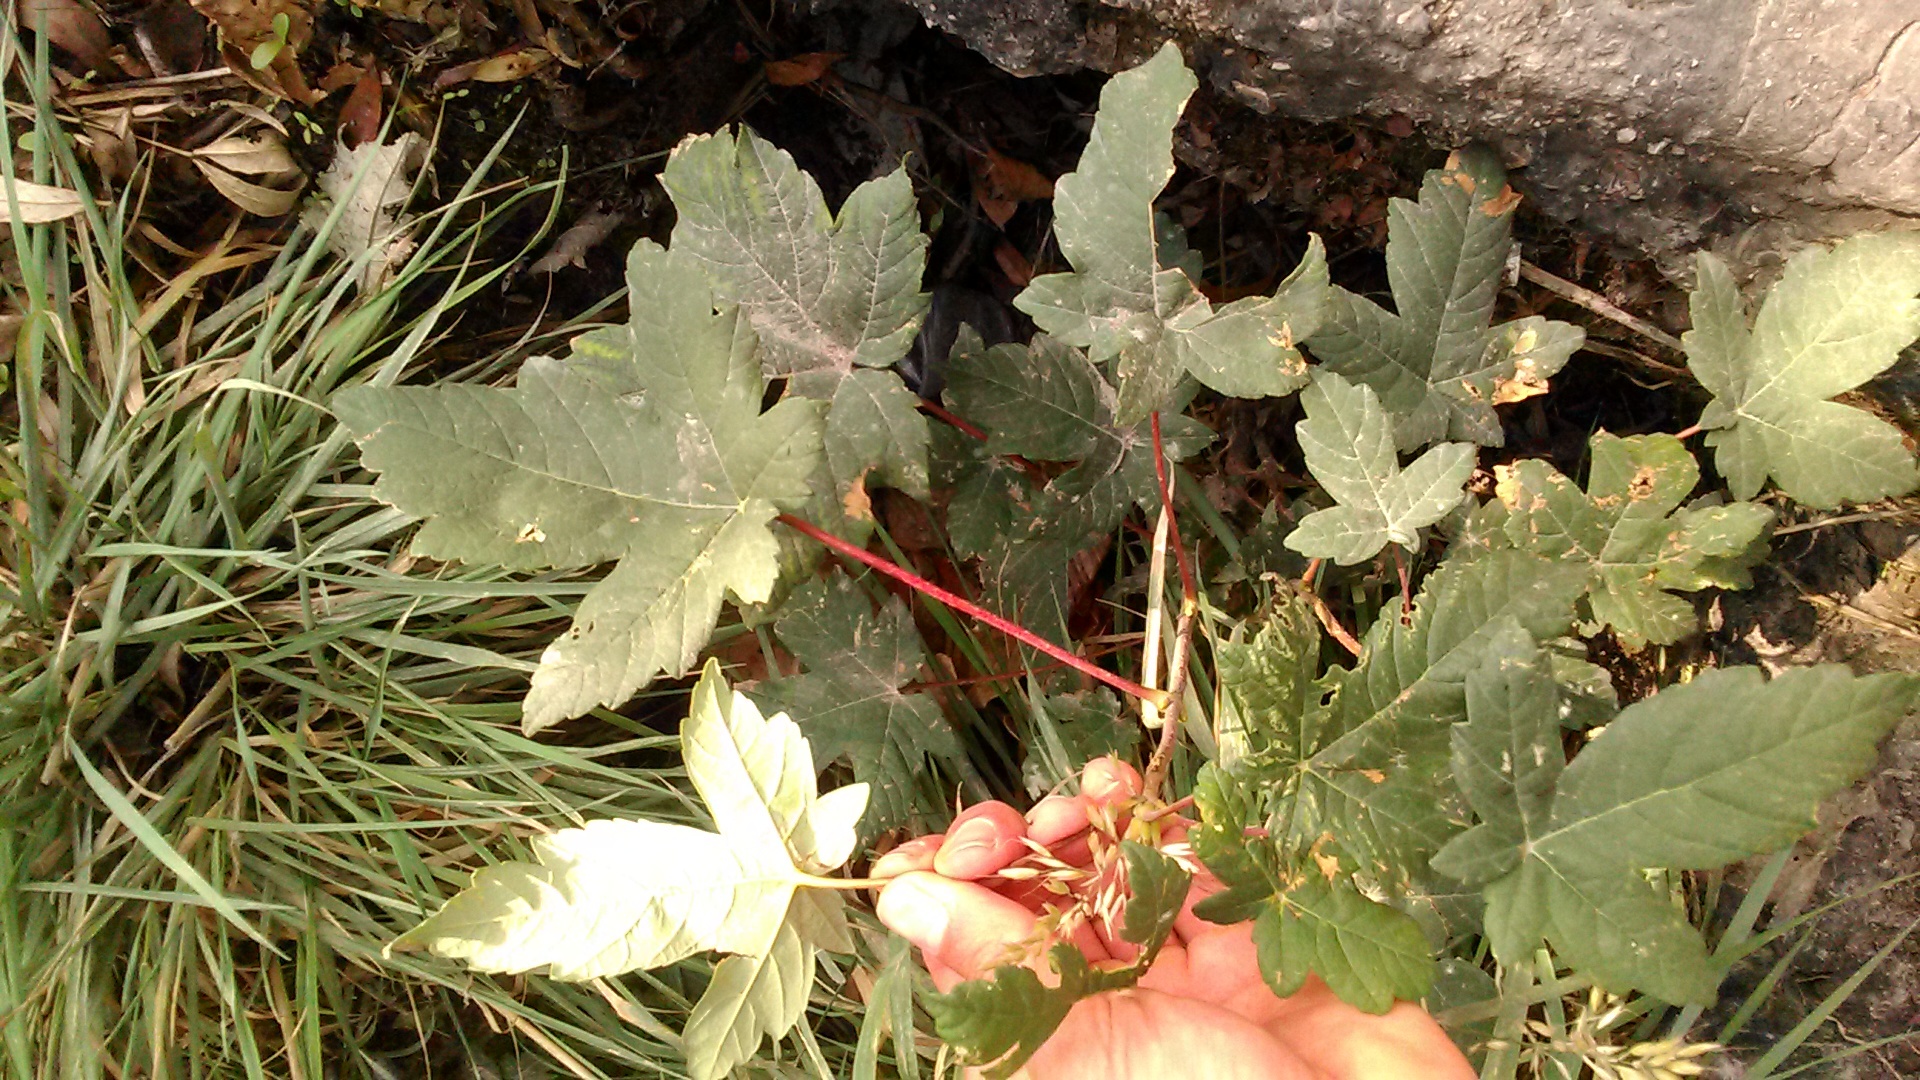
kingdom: Plantae
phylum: Tracheophyta
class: Magnoliopsida
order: Sapindales
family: Sapindaceae
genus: Acer
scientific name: Acer pseudoplatanus
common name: Sycamore
